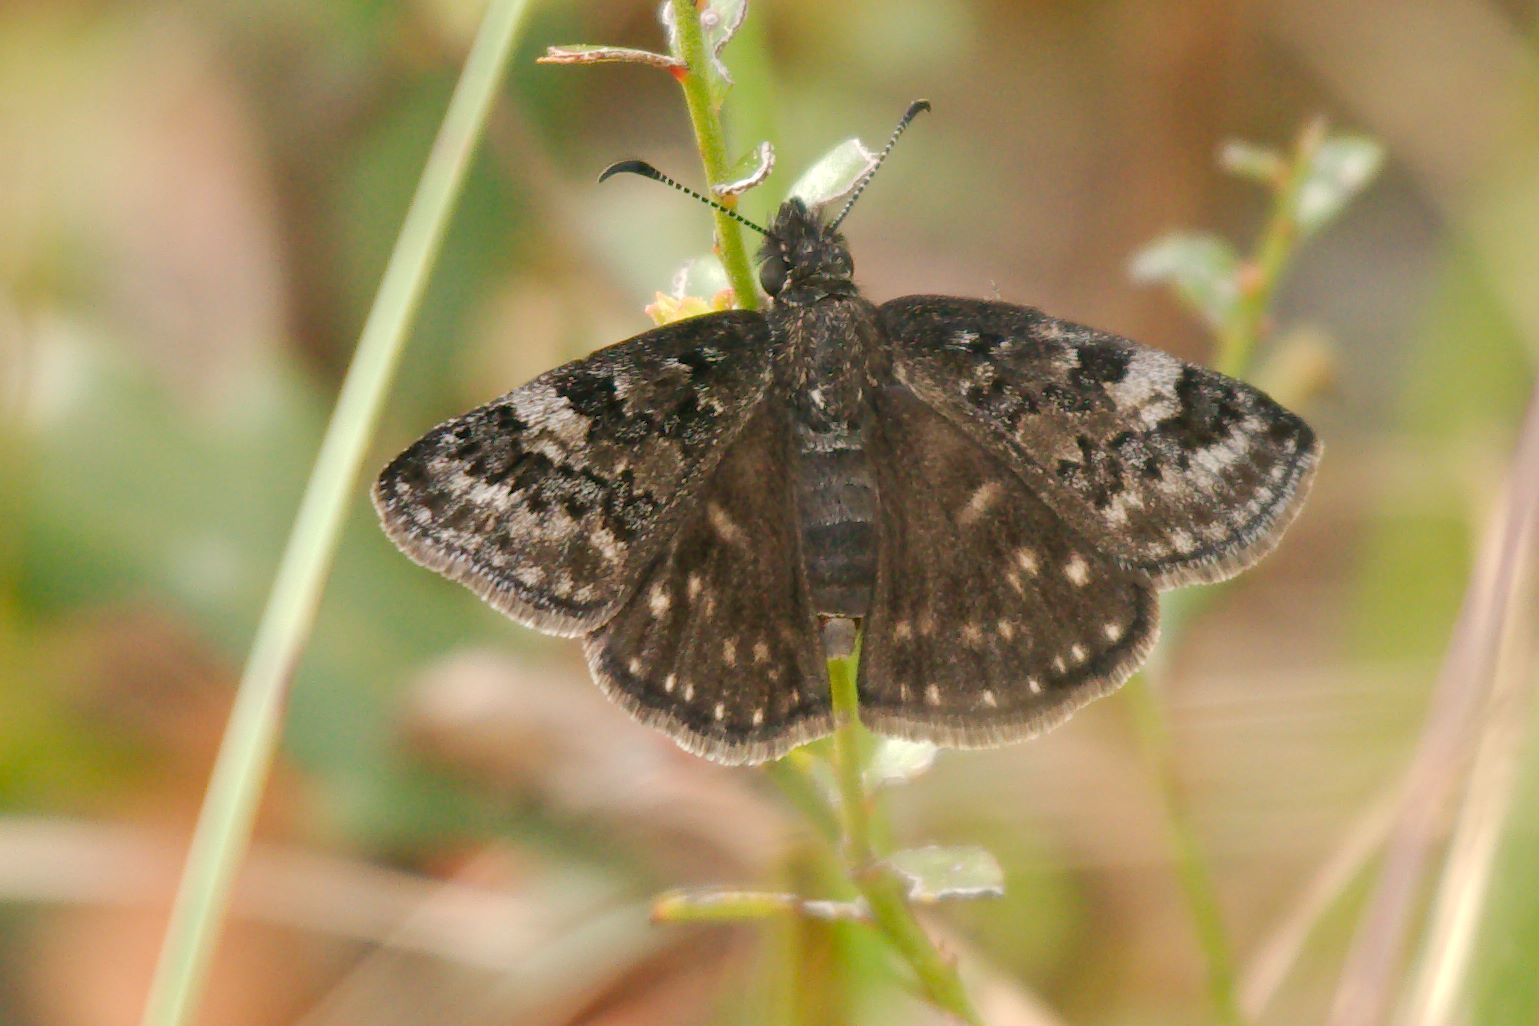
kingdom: Animalia
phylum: Arthropoda
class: Insecta
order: Lepidoptera
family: Hesperiidae
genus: Erynnis
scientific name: Erynnis brizo
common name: Sleepy duskywing
